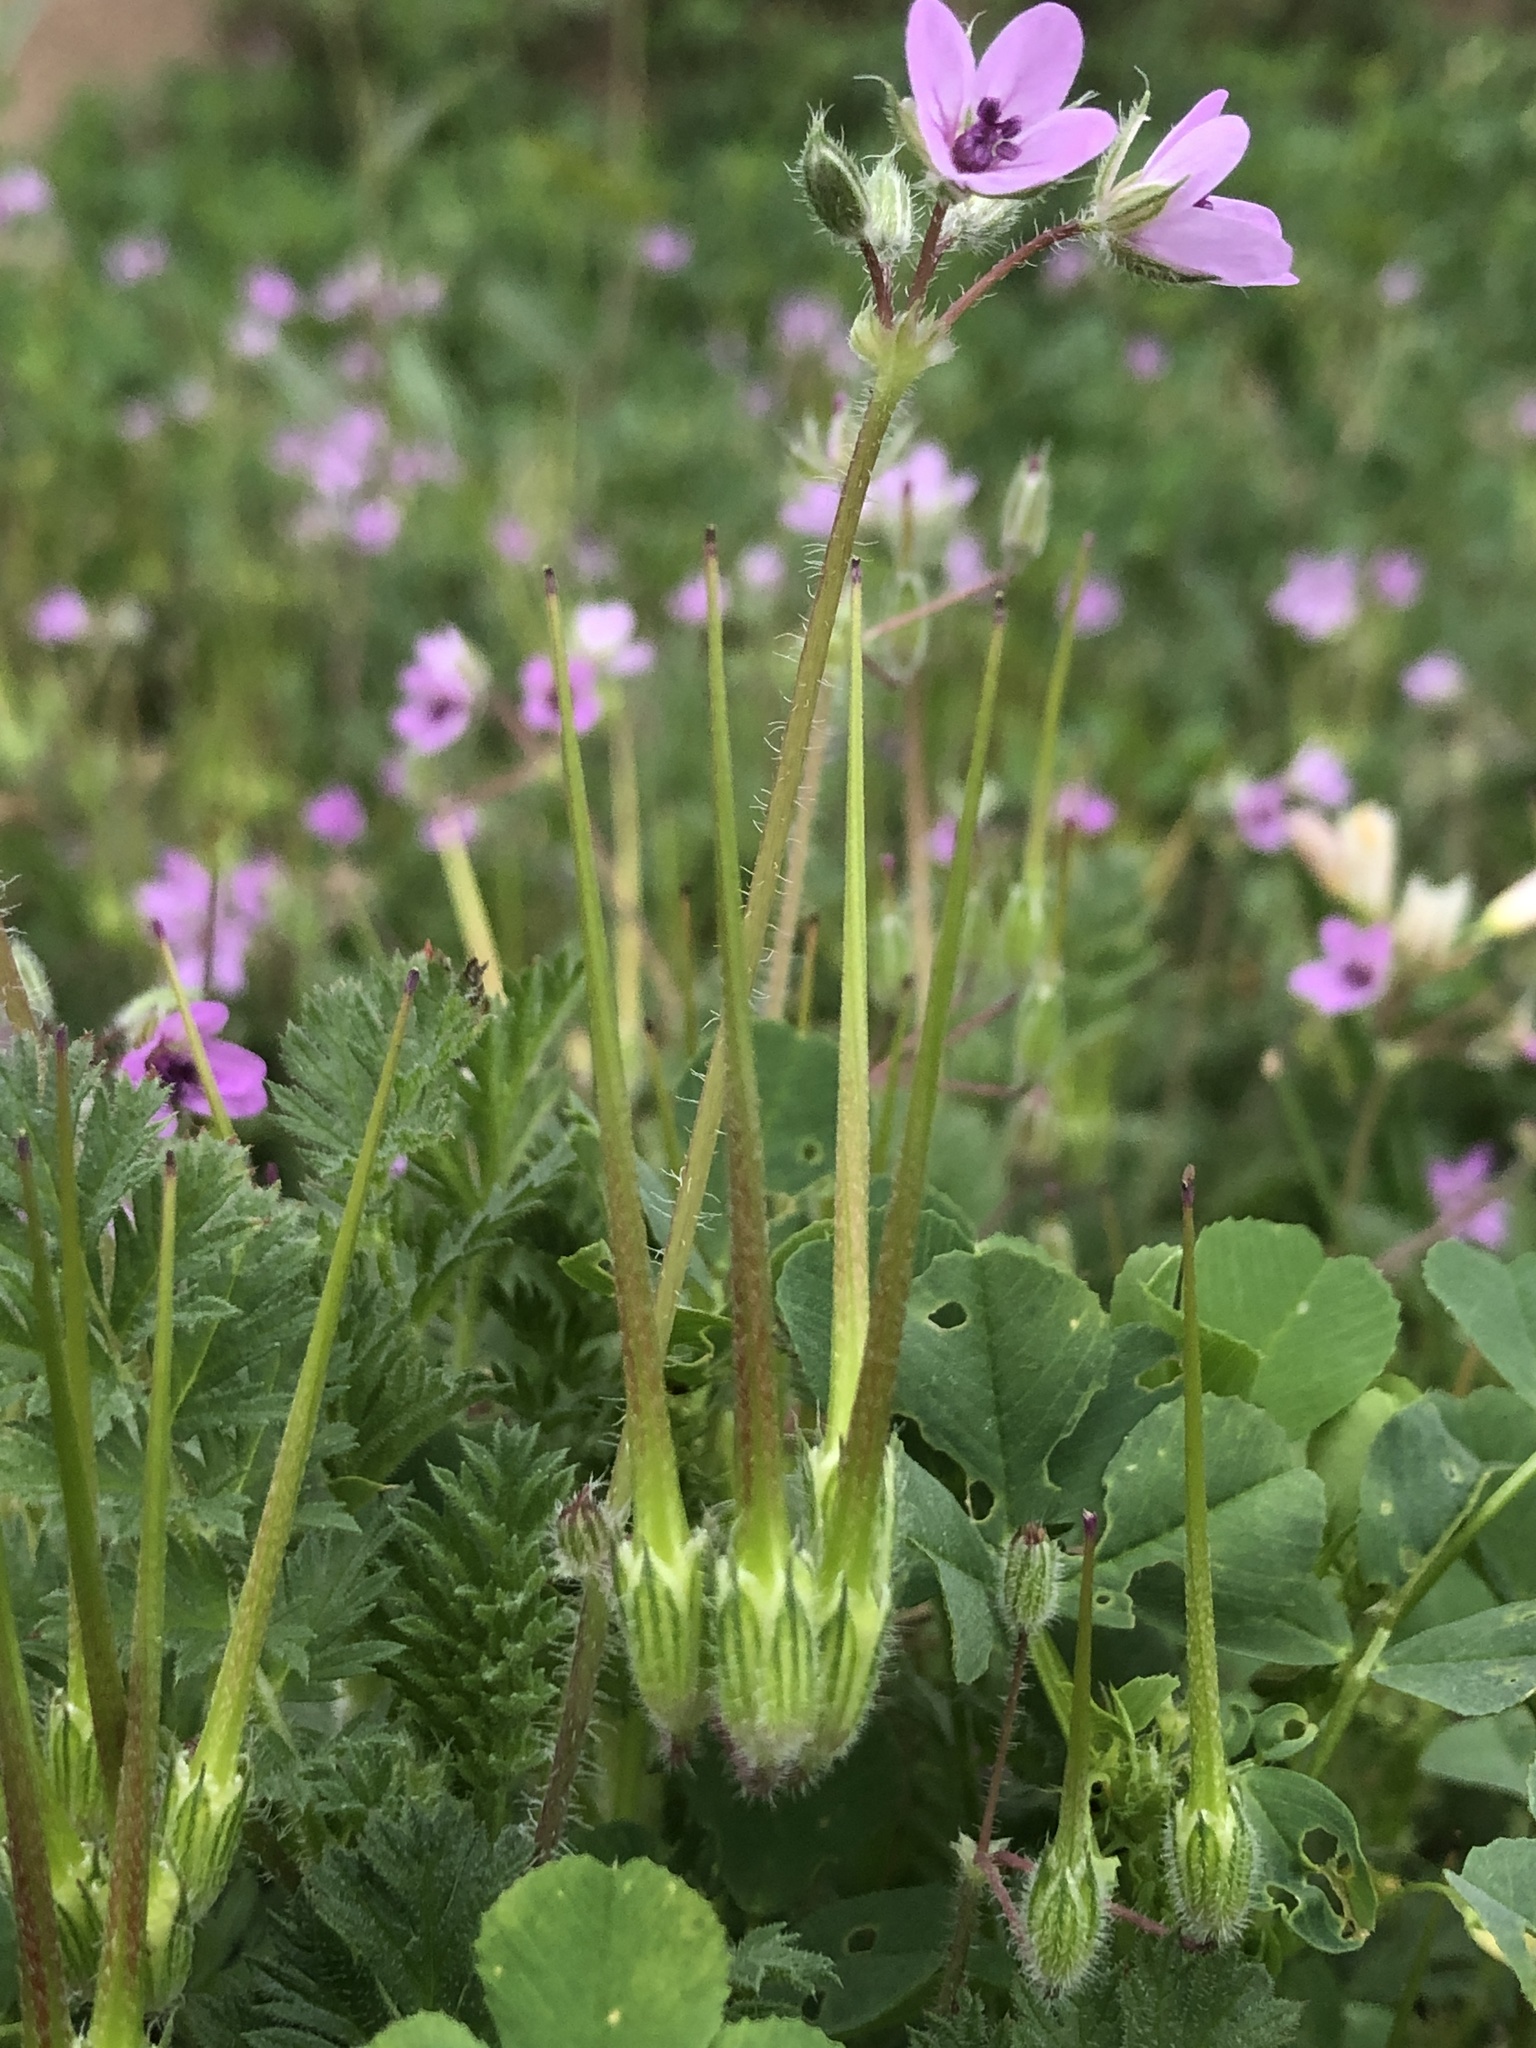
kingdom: Plantae
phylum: Tracheophyta
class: Magnoliopsida
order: Geraniales
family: Geraniaceae
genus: Erodium
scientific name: Erodium cicutarium
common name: Common stork's-bill
